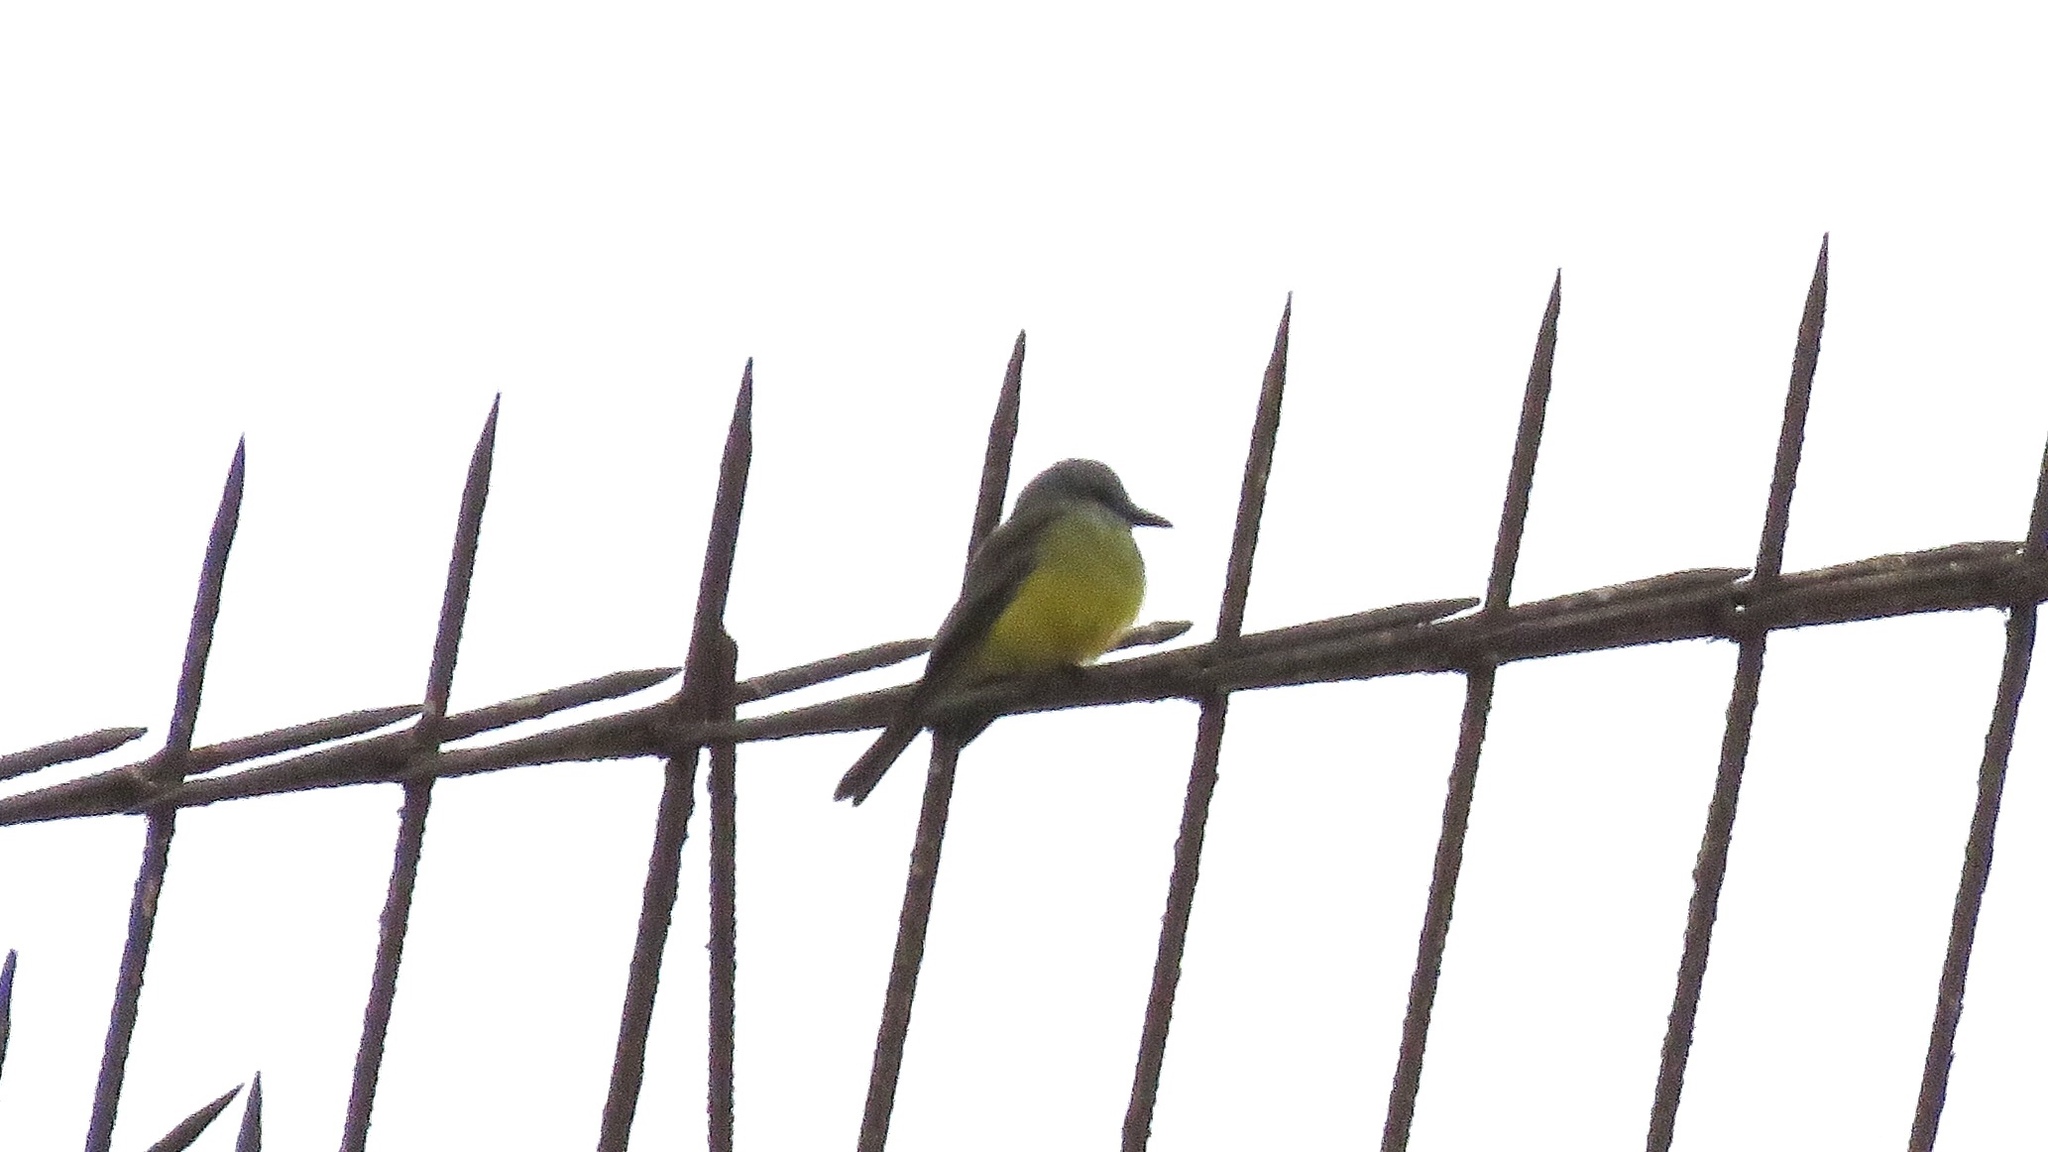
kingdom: Animalia
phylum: Chordata
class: Aves
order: Passeriformes
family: Tyrannidae
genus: Tyrannus
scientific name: Tyrannus melancholicus
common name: Tropical kingbird
